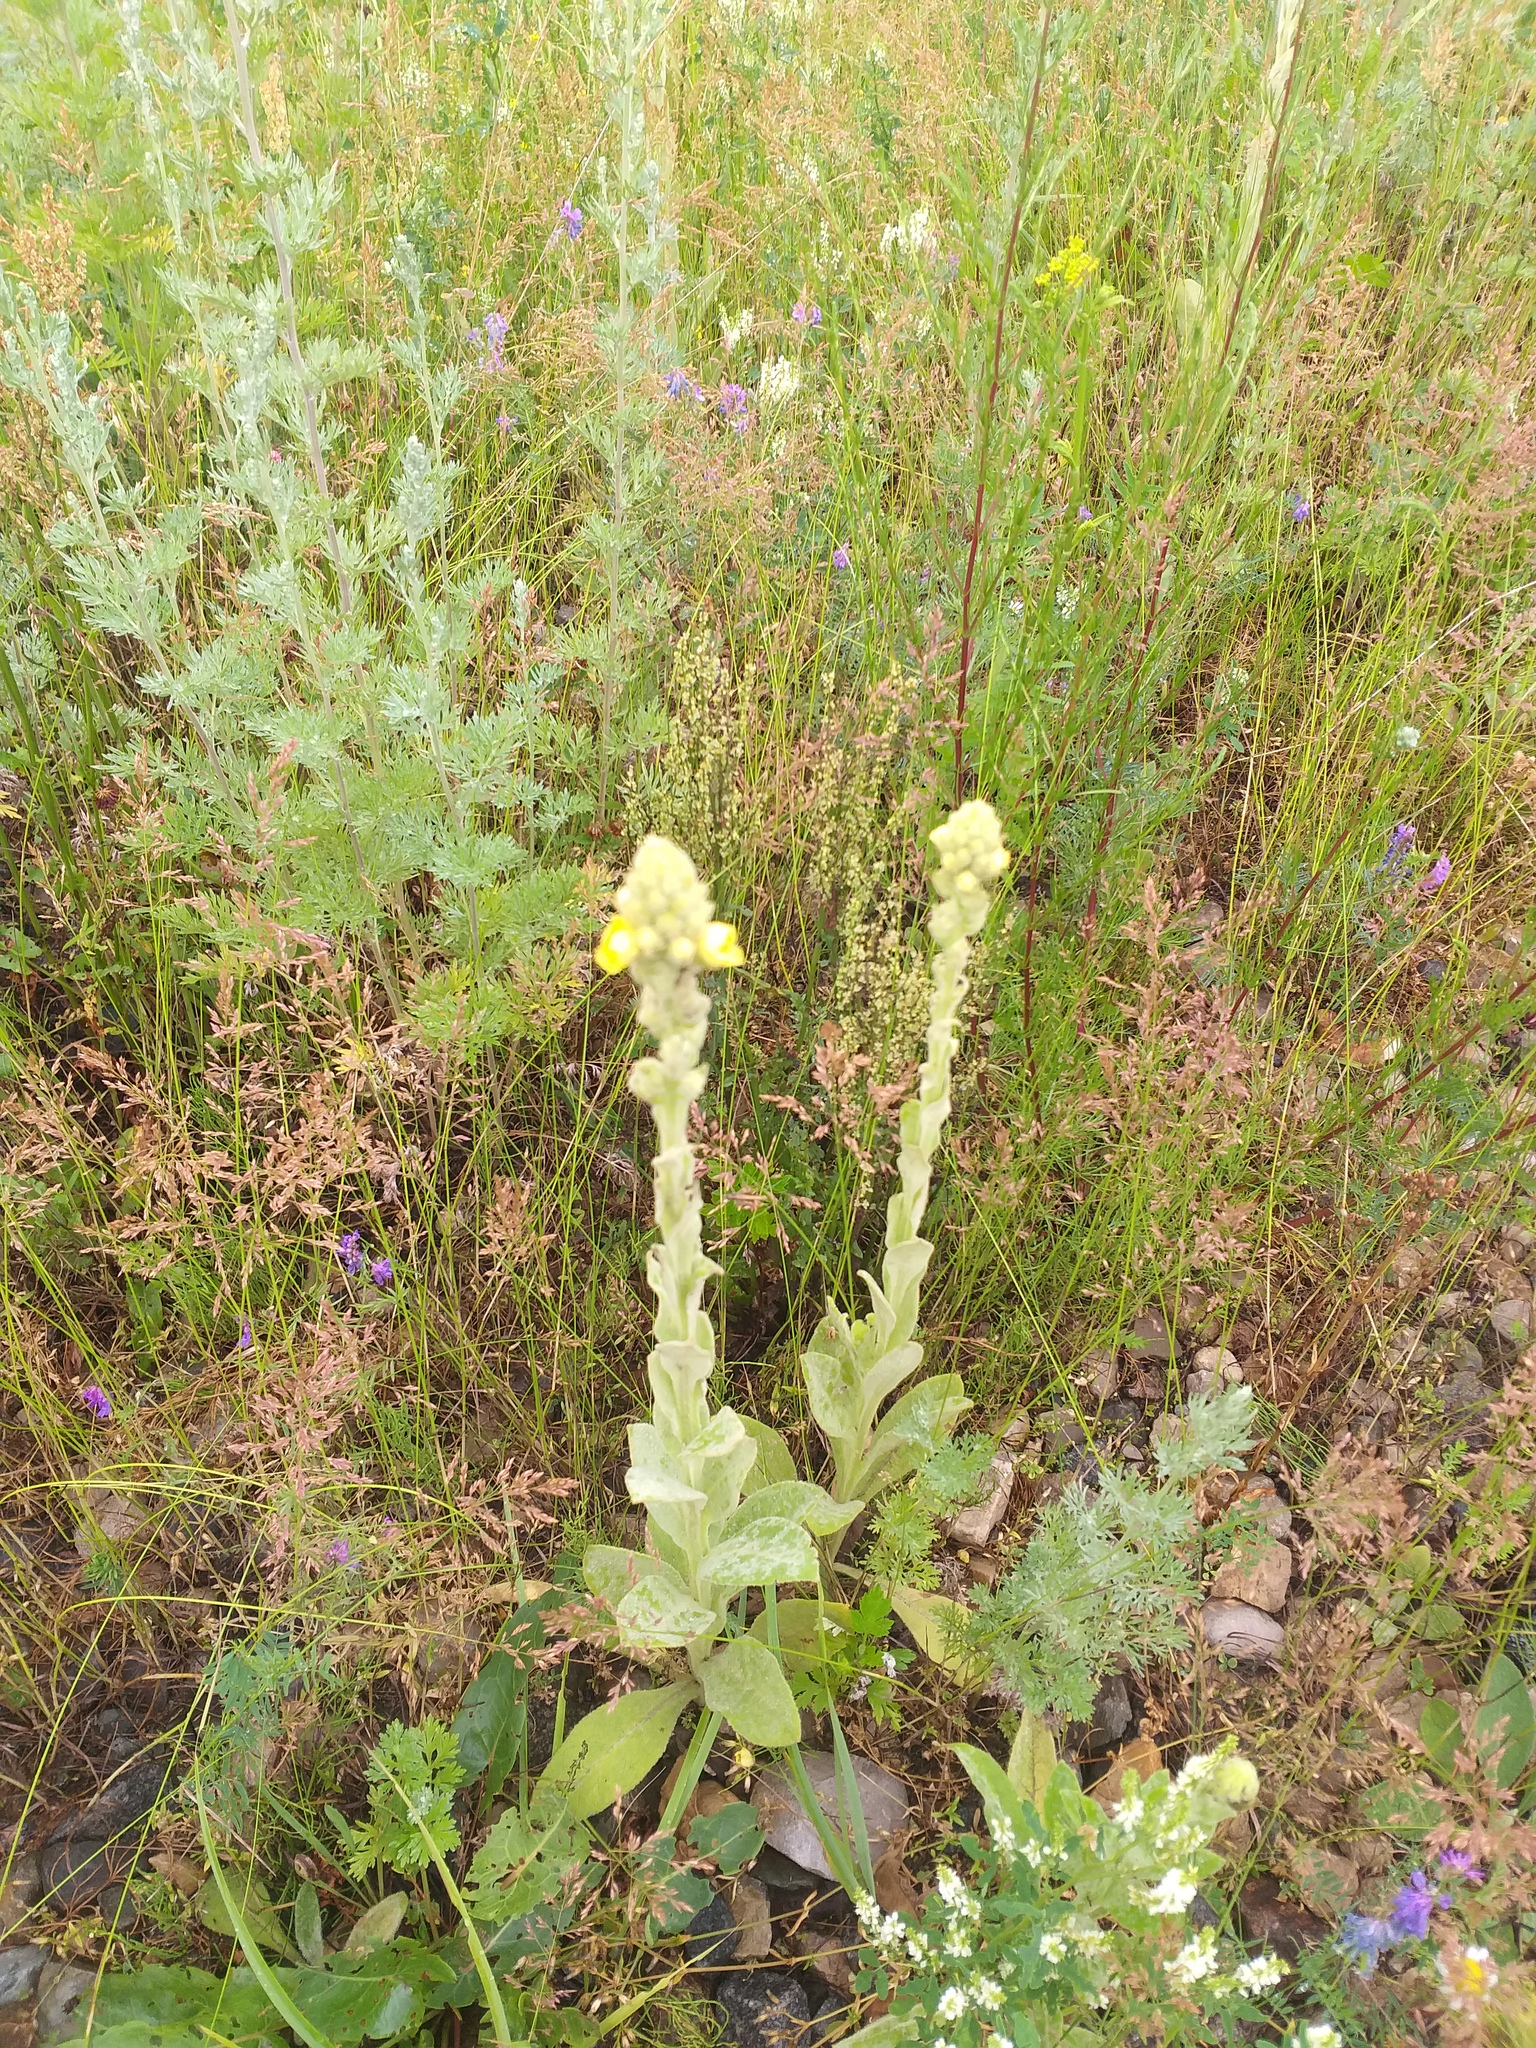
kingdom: Plantae
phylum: Tracheophyta
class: Magnoliopsida
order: Lamiales
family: Scrophulariaceae
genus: Verbascum
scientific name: Verbascum thapsus
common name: Common mullein
